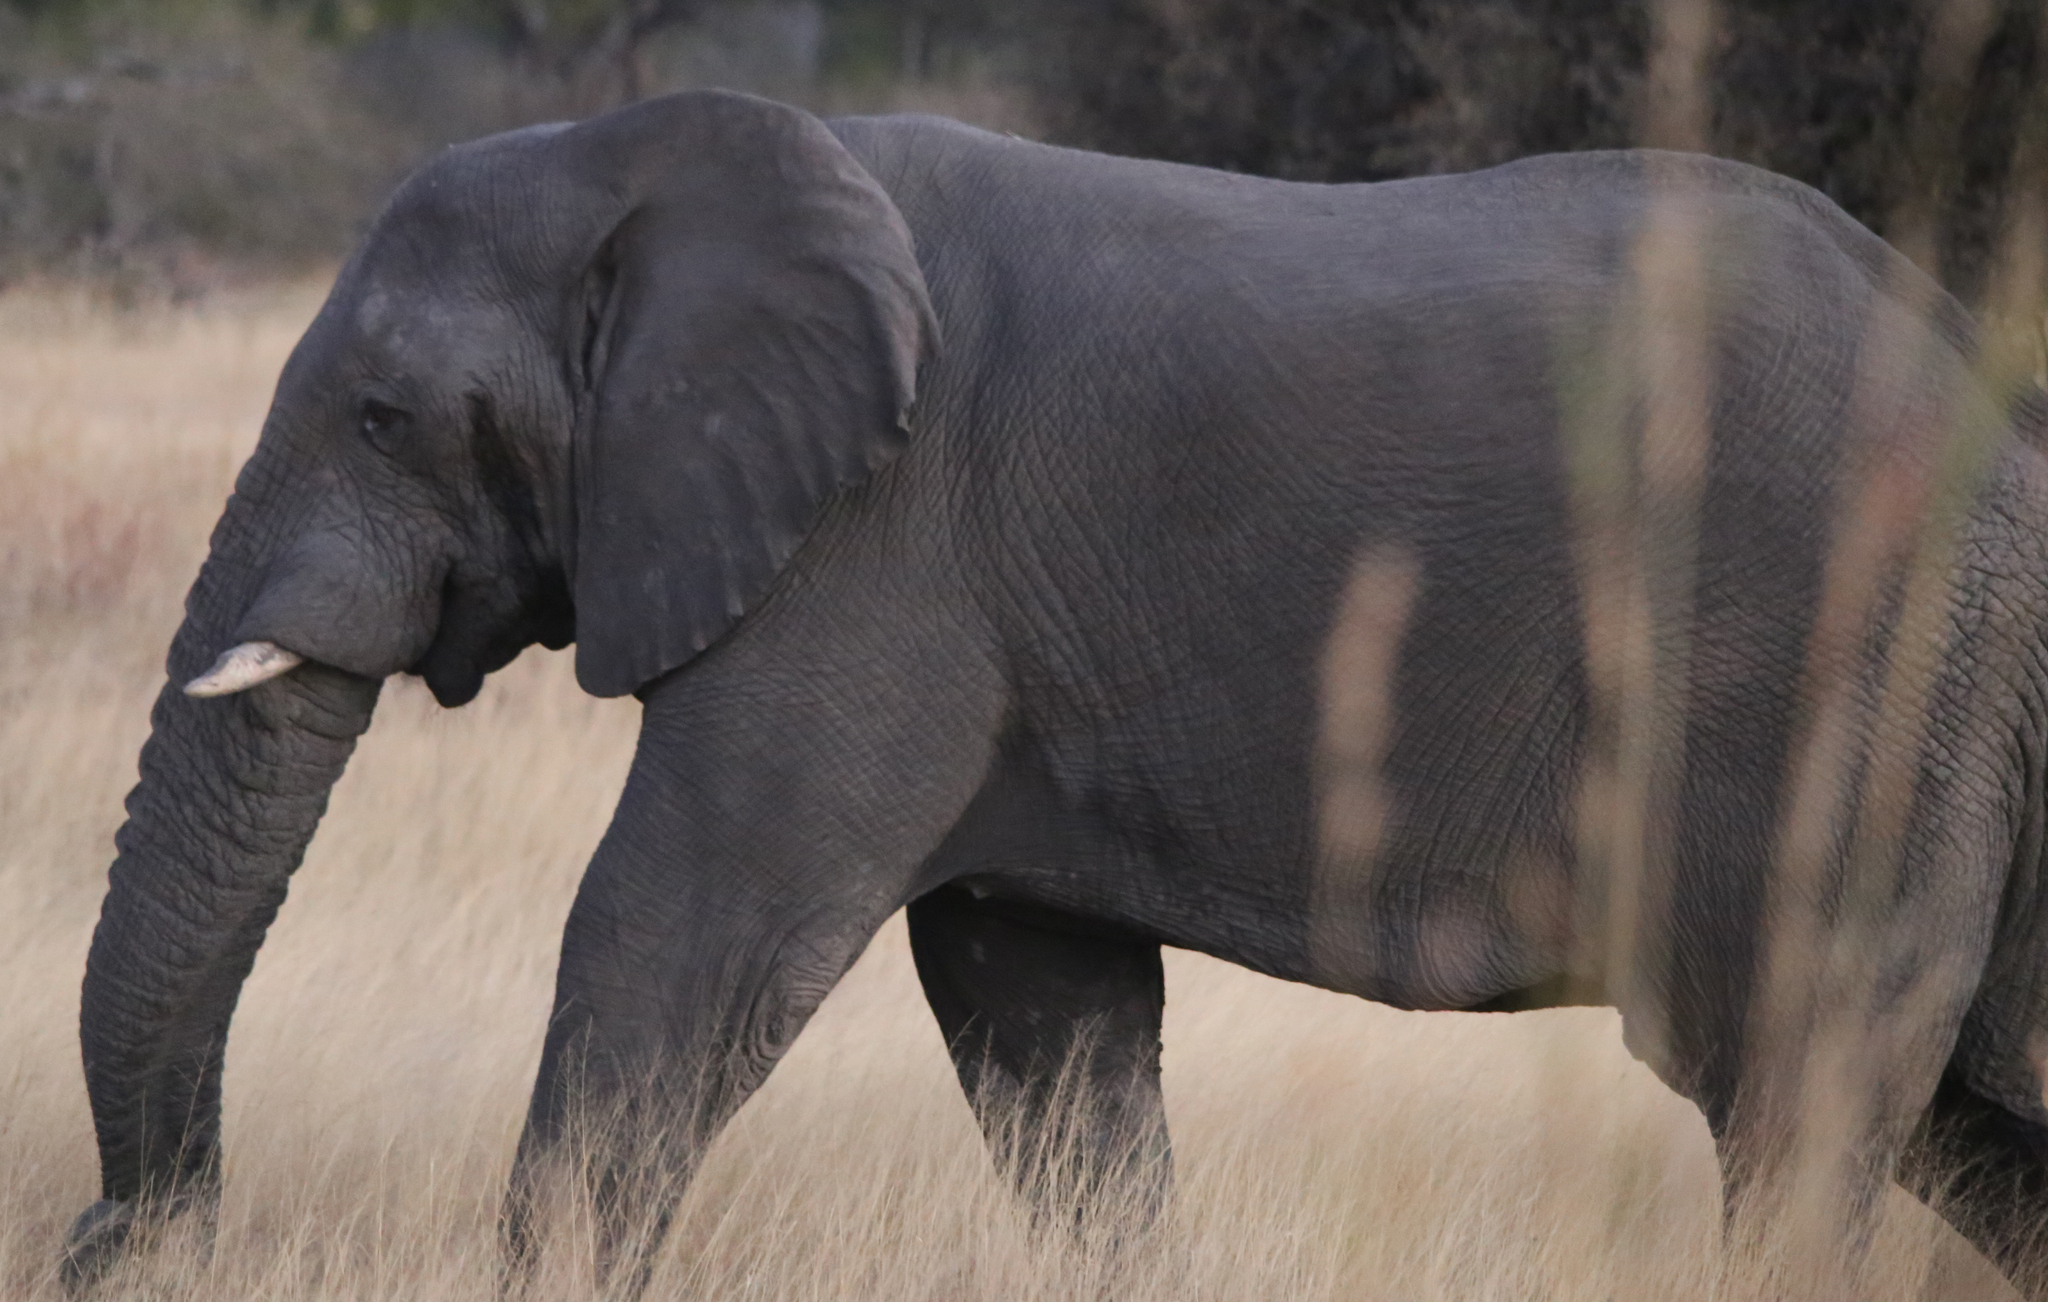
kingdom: Animalia
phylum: Chordata
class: Mammalia
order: Proboscidea
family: Elephantidae
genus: Loxodonta
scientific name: Loxodonta africana
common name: African elephant
